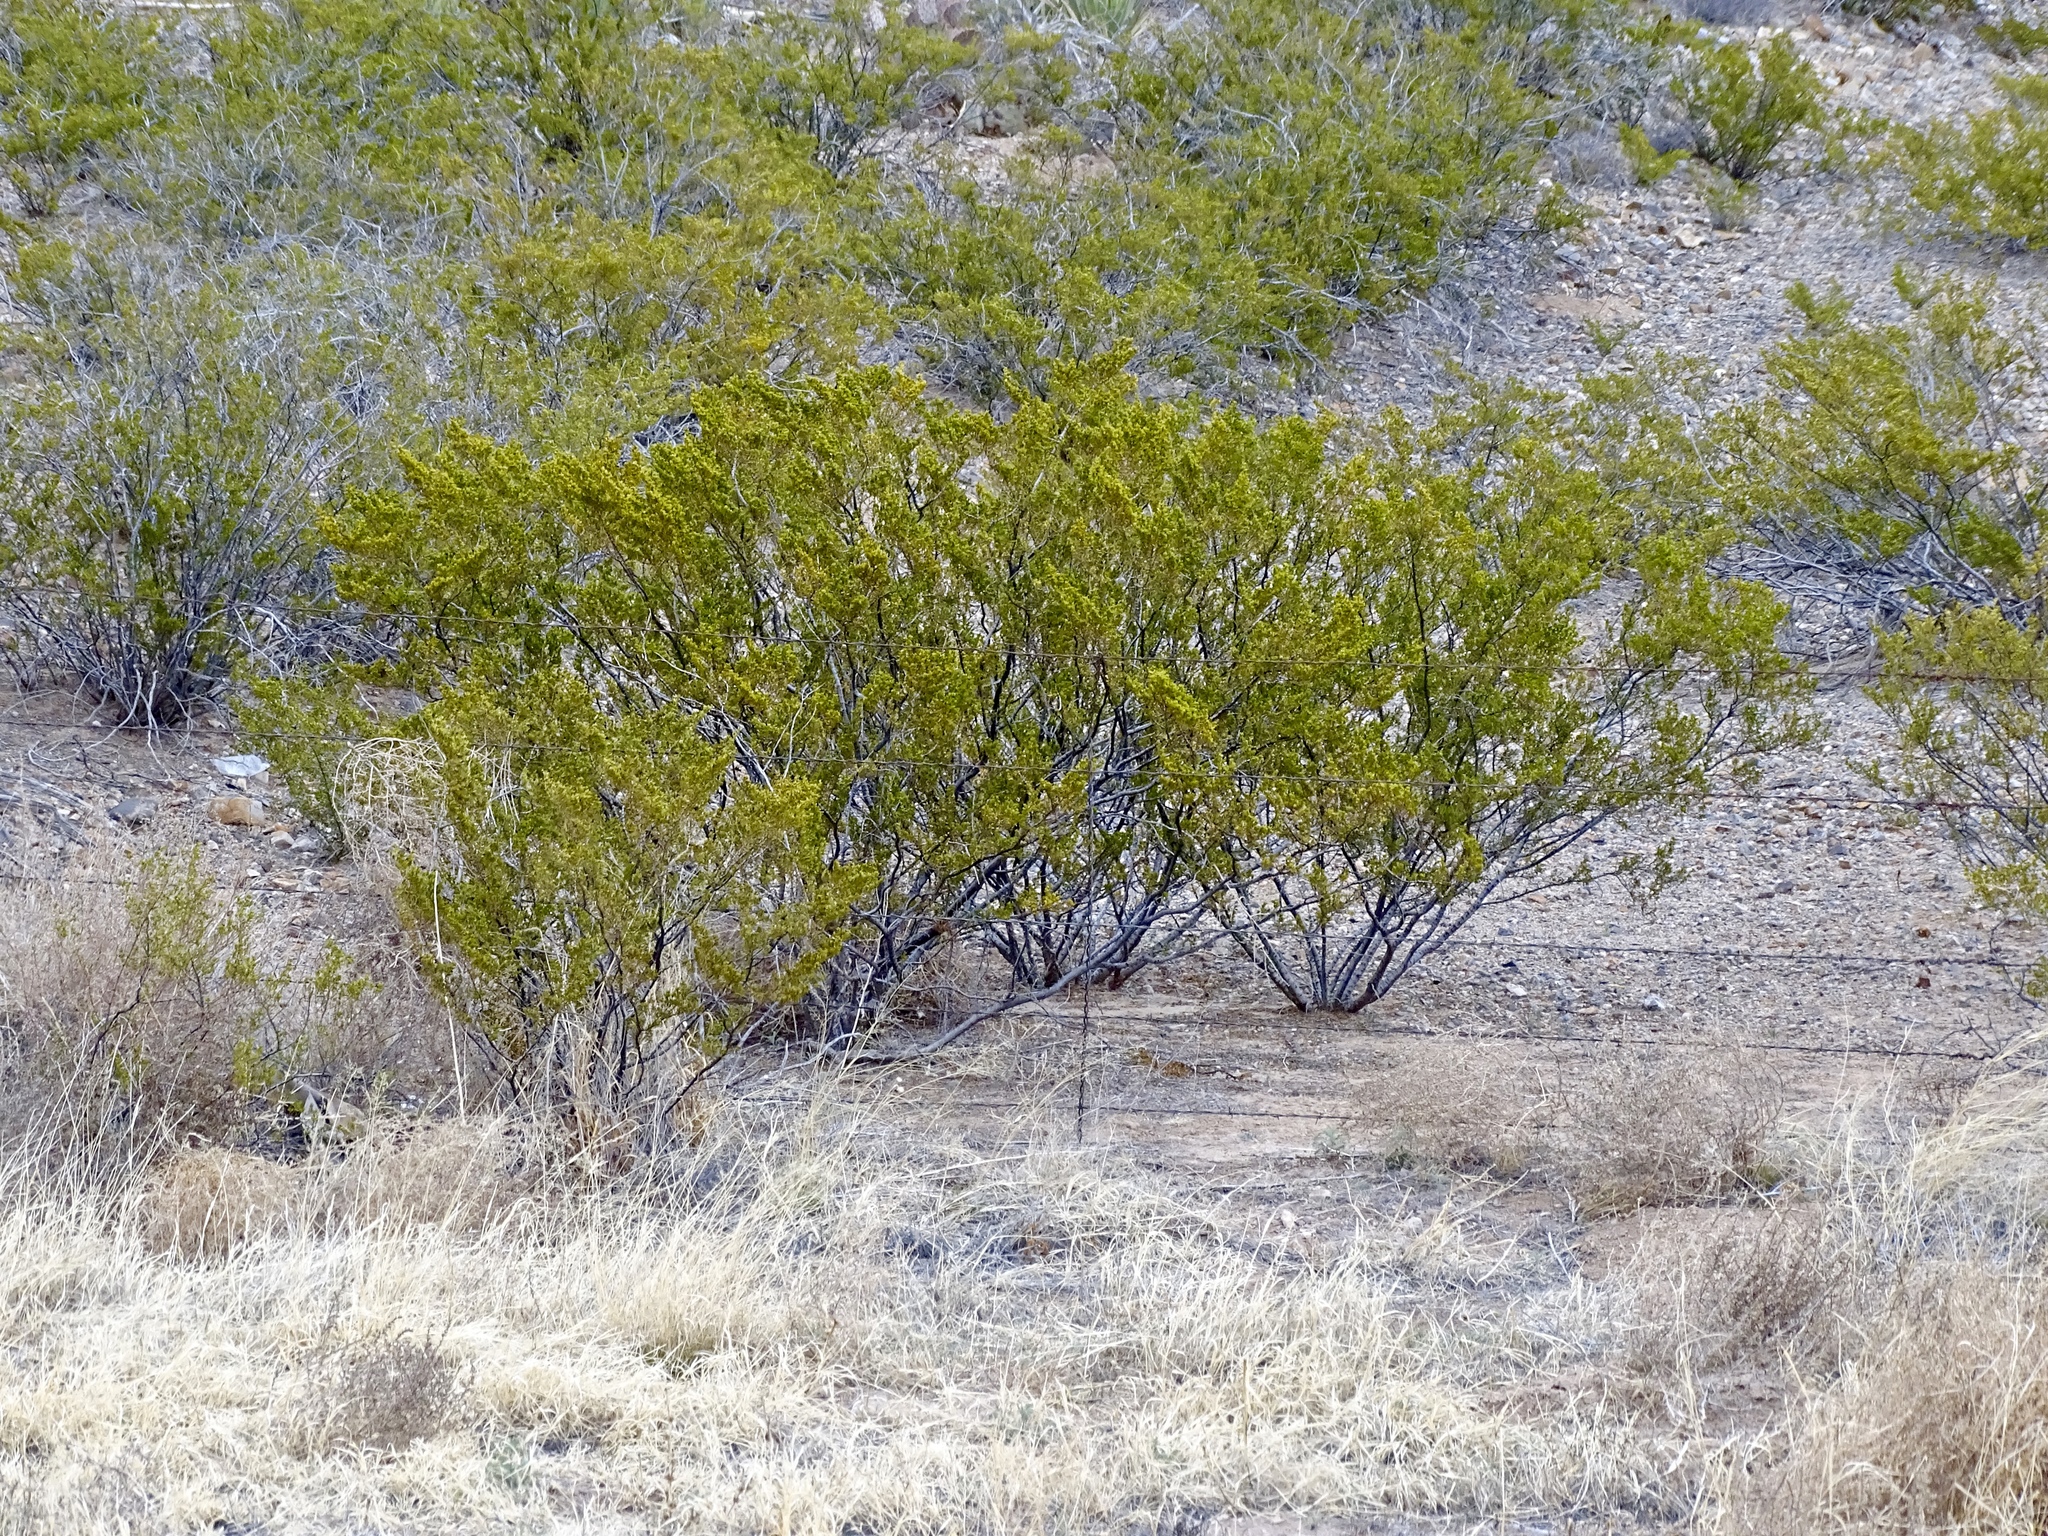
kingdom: Plantae
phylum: Tracheophyta
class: Magnoliopsida
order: Zygophyllales
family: Zygophyllaceae
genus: Larrea
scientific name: Larrea tridentata
